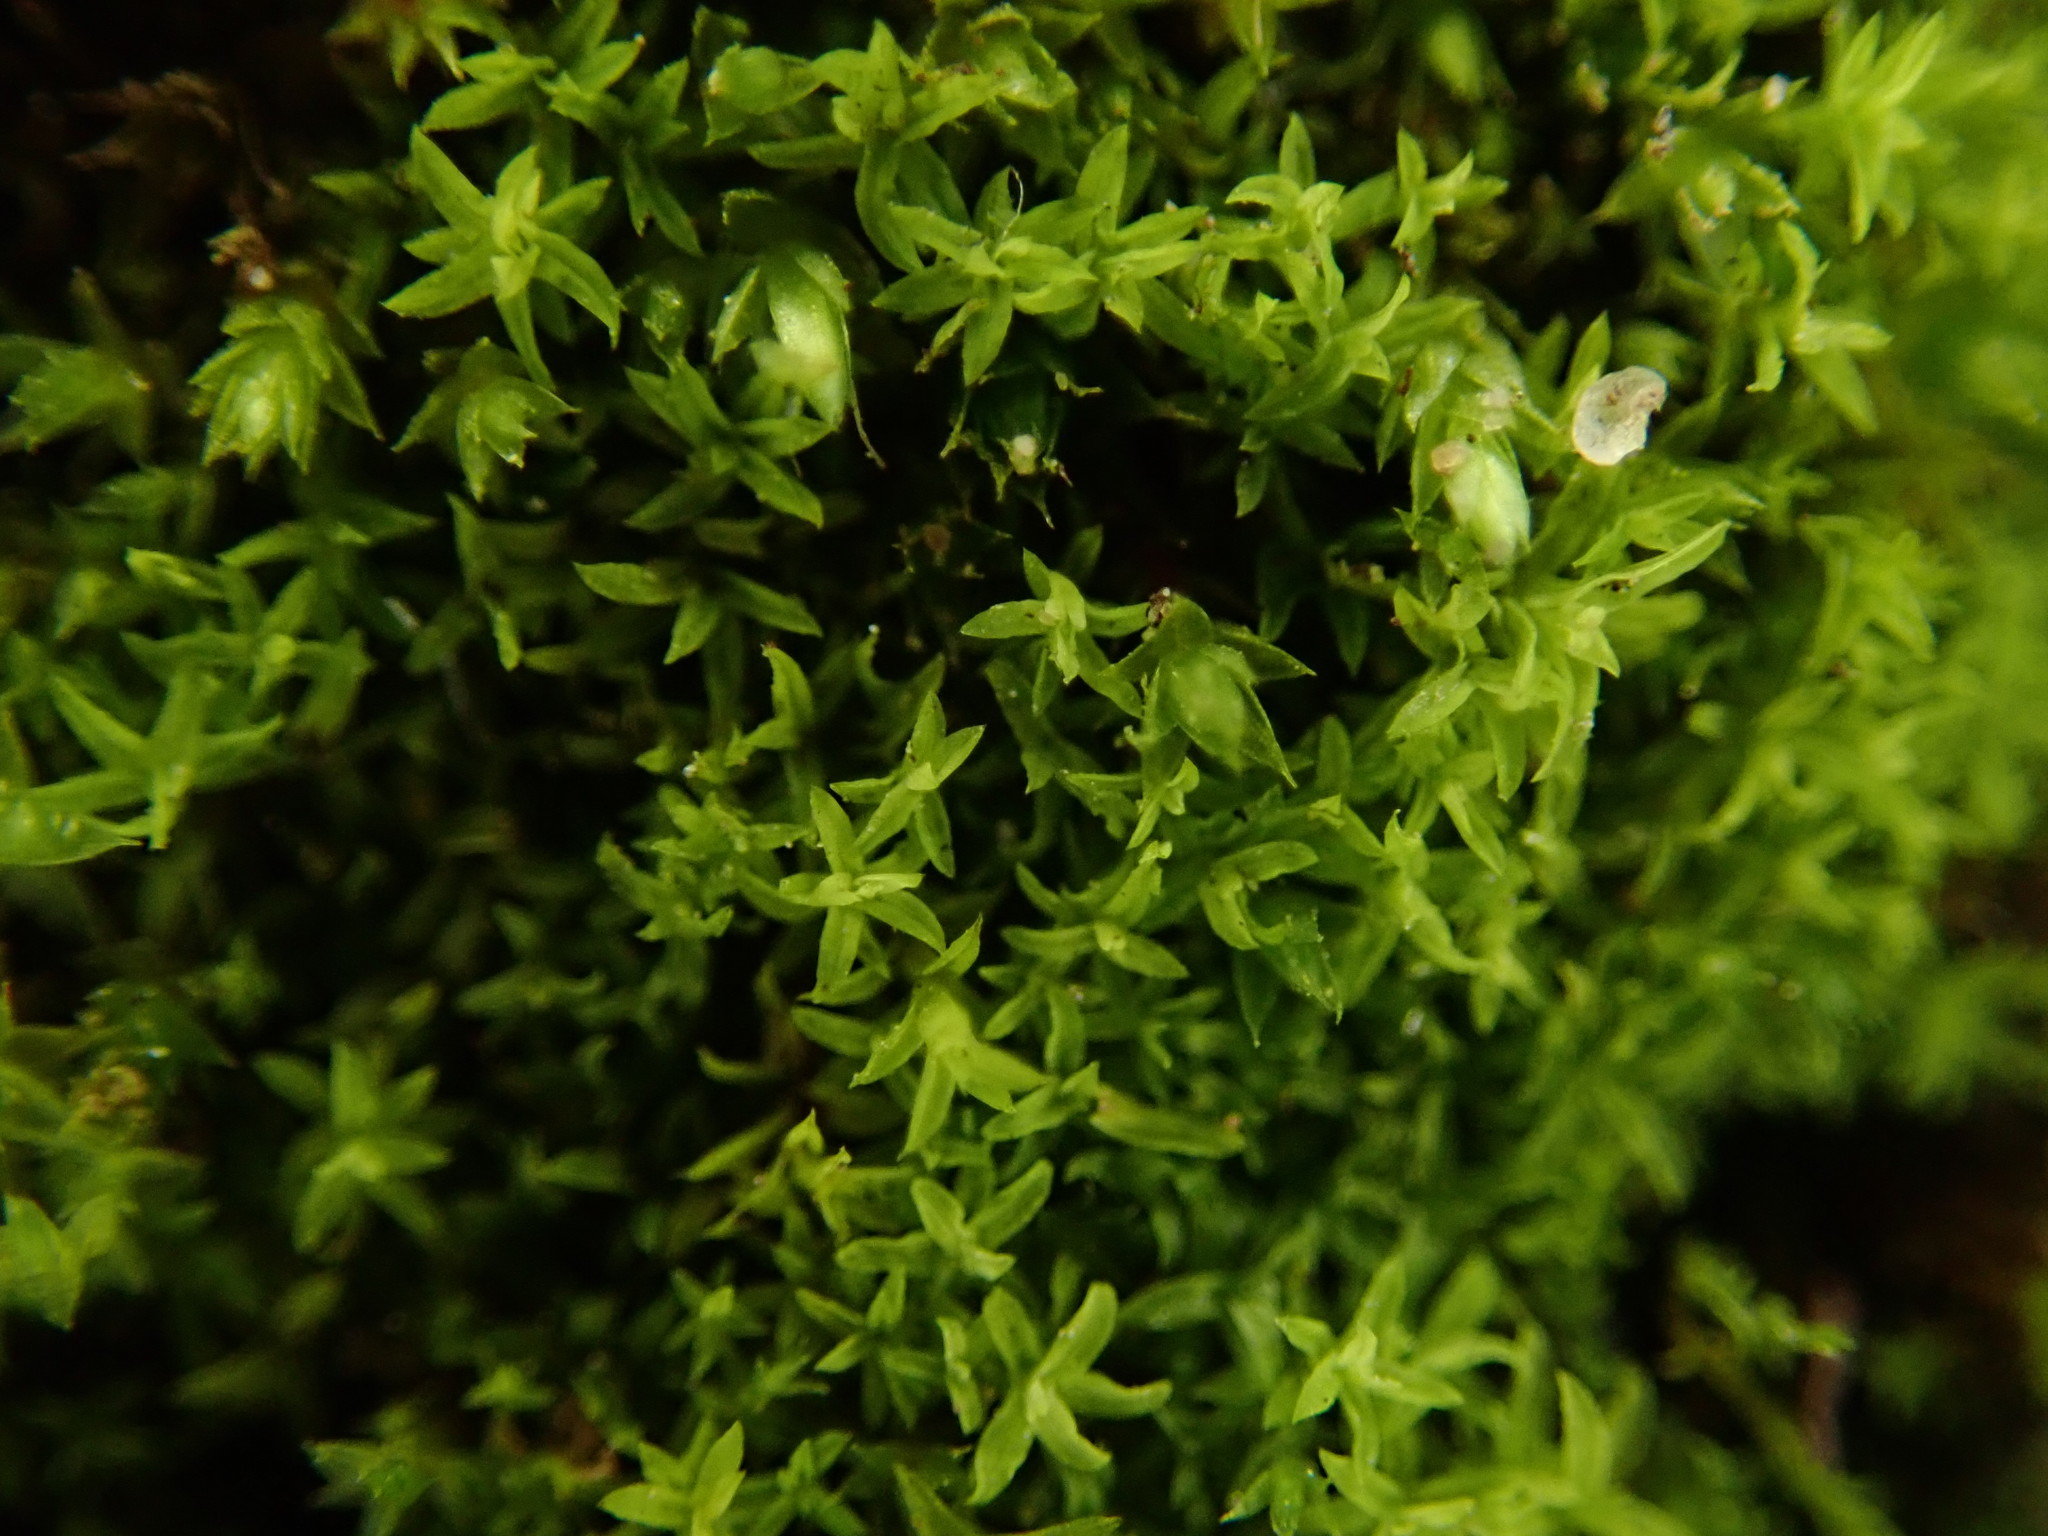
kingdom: Plantae
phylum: Bryophyta
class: Bryopsida
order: Pottiales
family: Pottiaceae
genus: Streblotrichum
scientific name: Streblotrichum convolutum
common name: Lesser bird's-claw beard-moss
